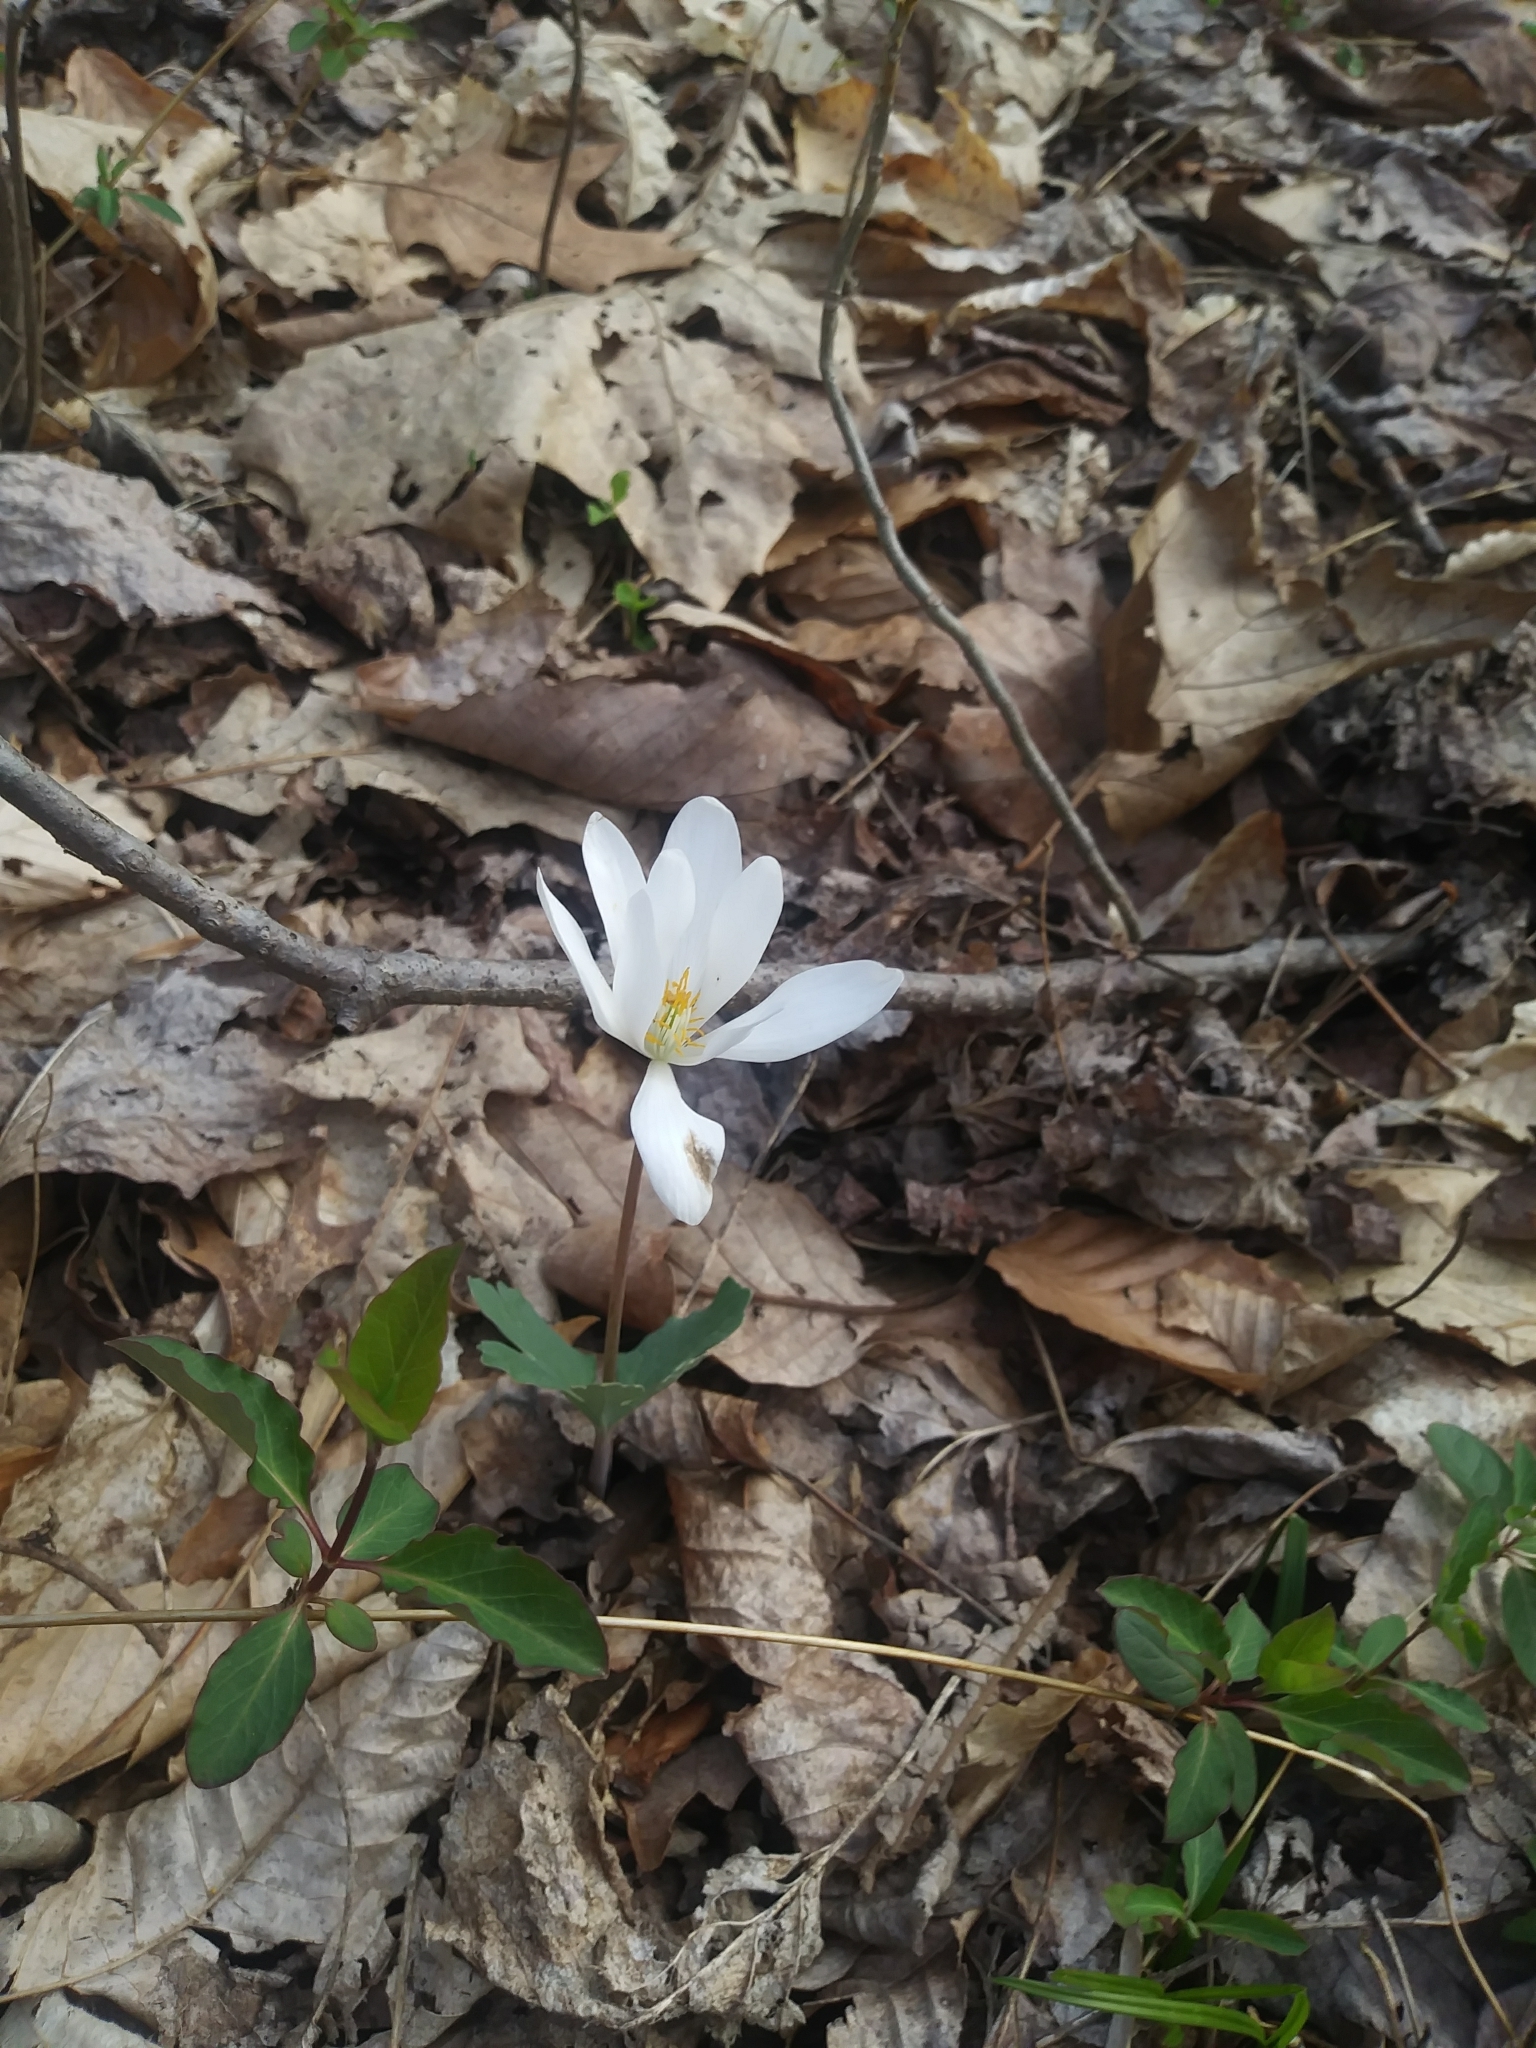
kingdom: Plantae
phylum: Tracheophyta
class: Magnoliopsida
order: Ranunculales
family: Papaveraceae
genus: Sanguinaria
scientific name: Sanguinaria canadensis
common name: Bloodroot
